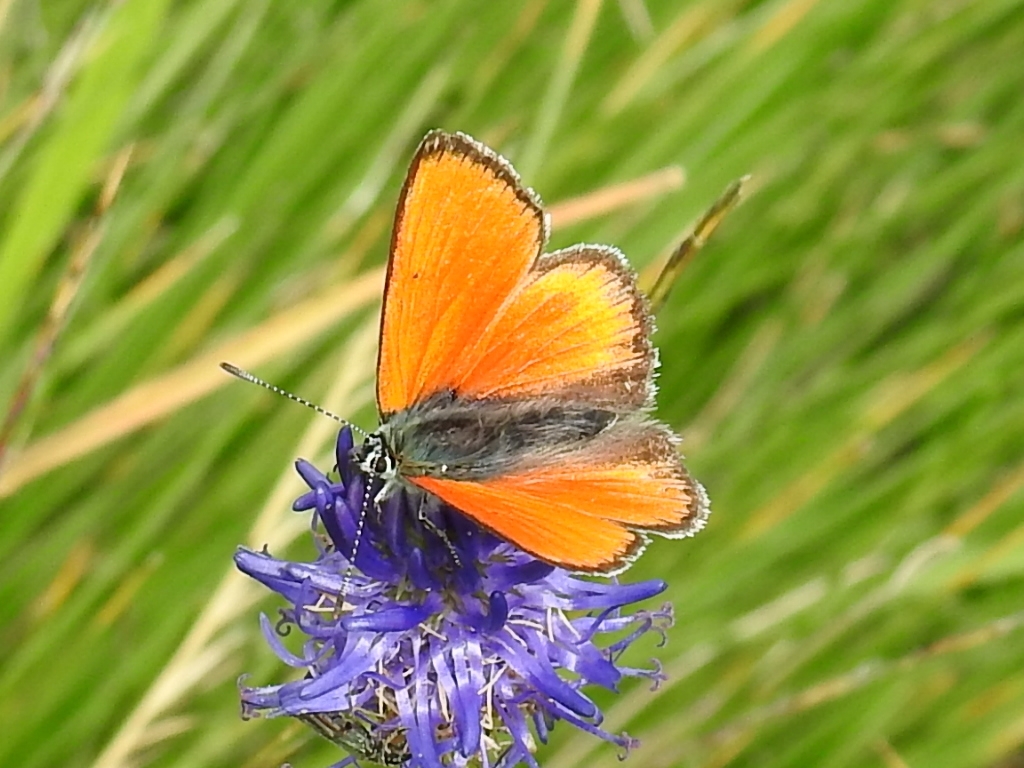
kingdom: Animalia
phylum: Arthropoda
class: Insecta
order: Lepidoptera
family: Lycaenidae
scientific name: Lycaenidae
